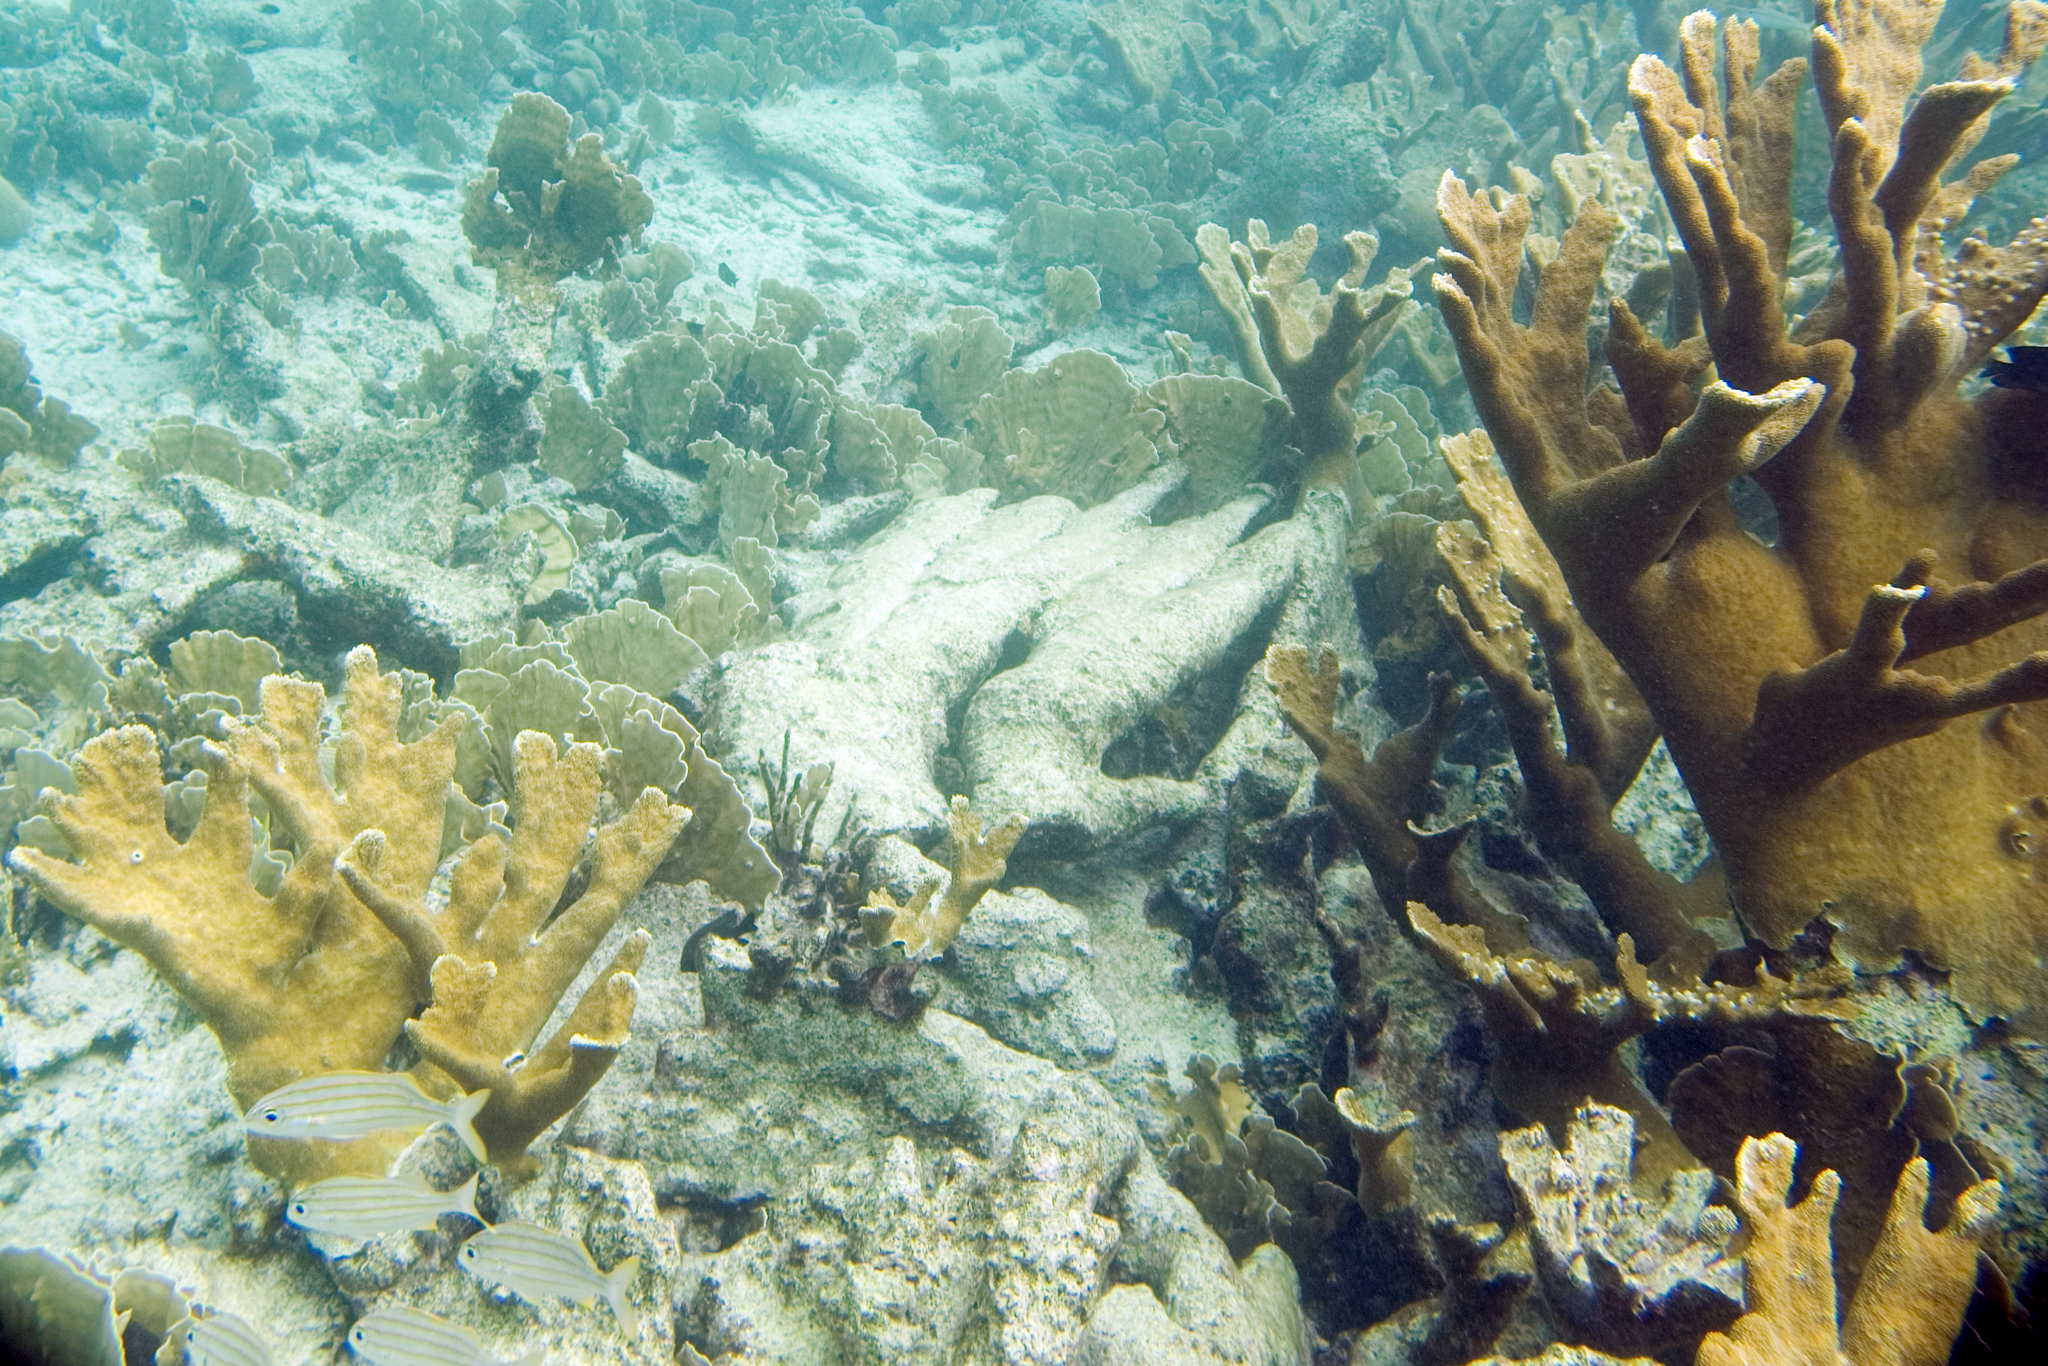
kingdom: Animalia
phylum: Cnidaria
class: Anthozoa
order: Scleractinia
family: Acroporidae
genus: Acropora
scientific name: Acropora palmata
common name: Elkhorn coral
